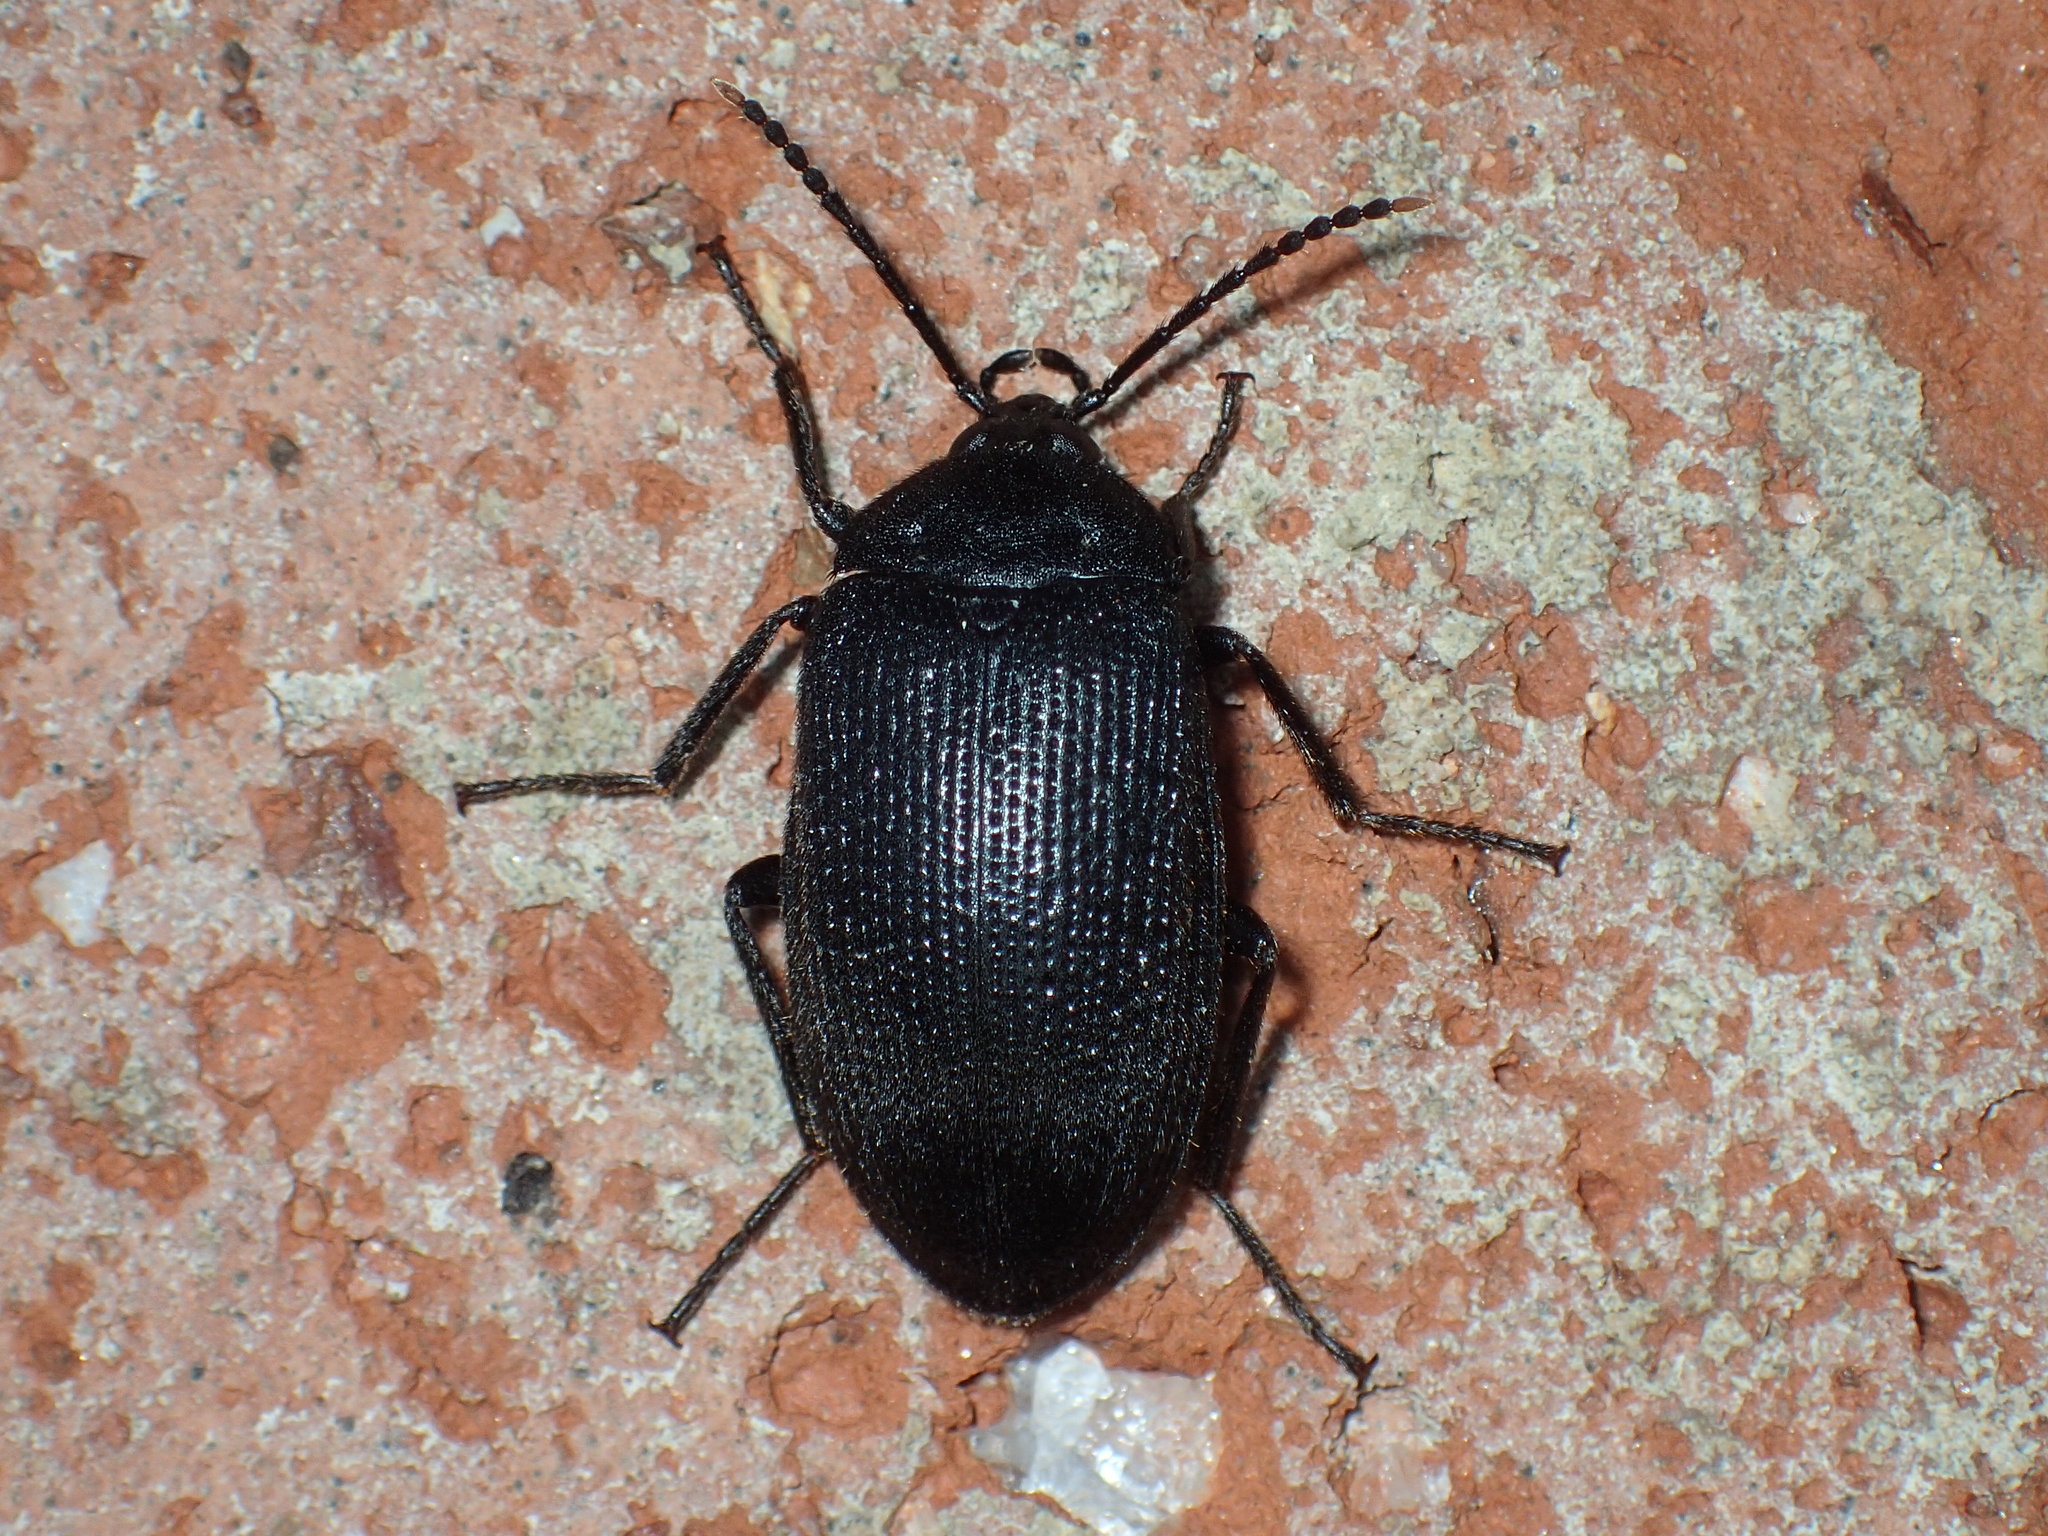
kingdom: Animalia
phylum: Arthropoda
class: Insecta
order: Coleoptera
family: Tetratomidae
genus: Penthe
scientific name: Penthe pimelia
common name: Velvety bark beetle
